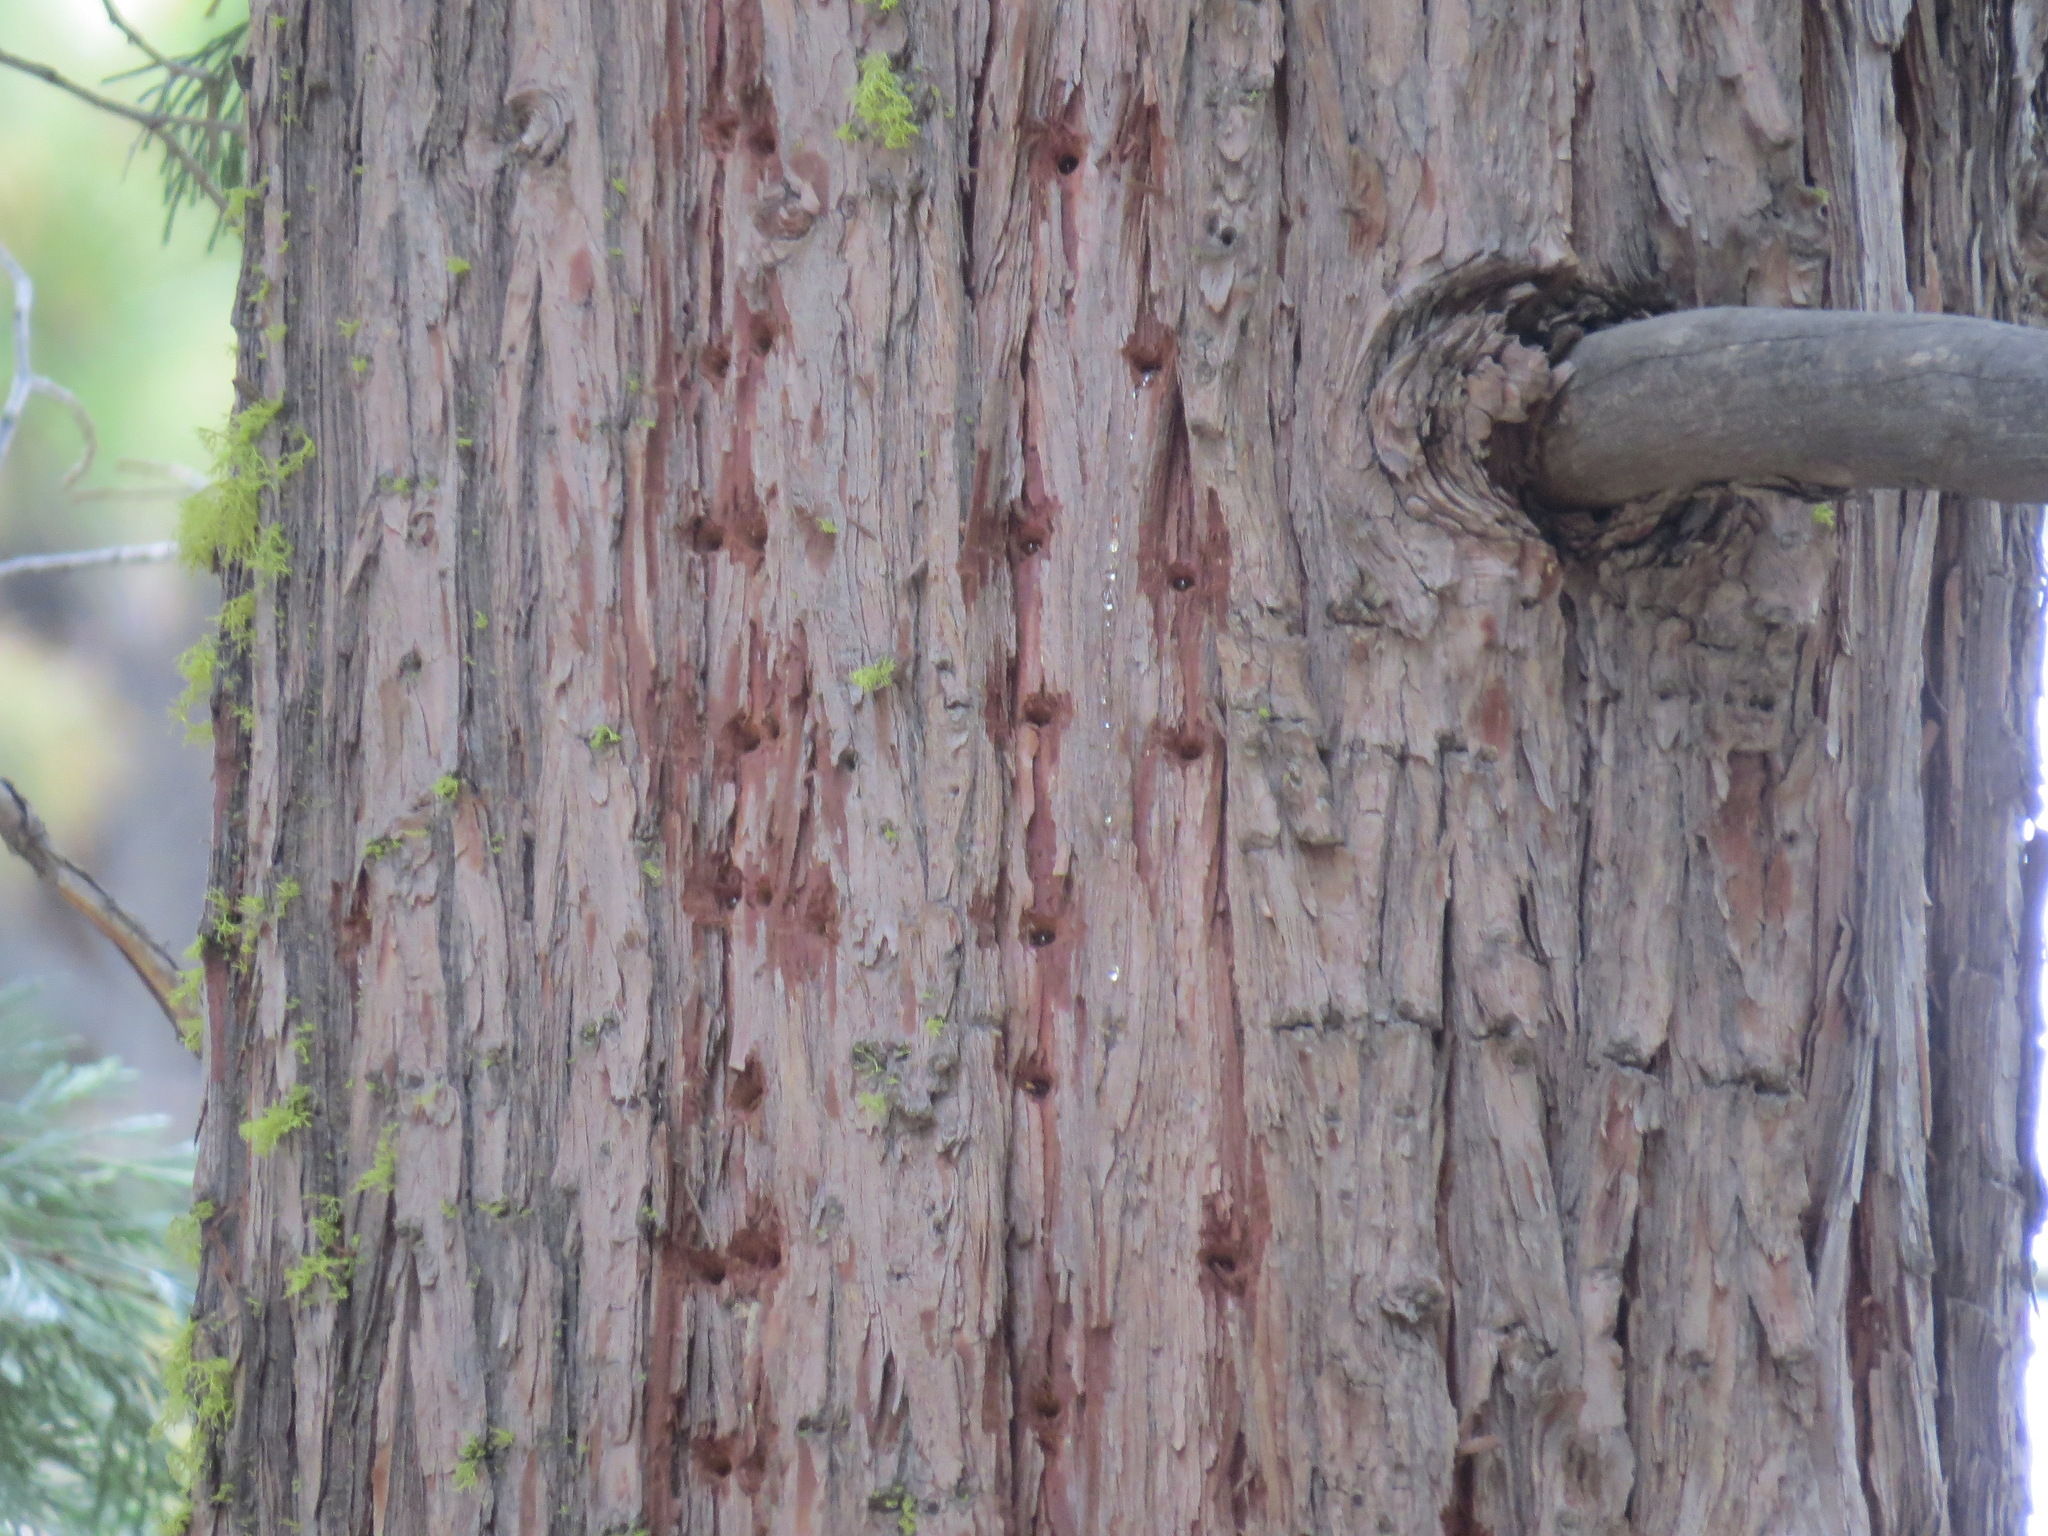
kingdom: Animalia
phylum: Chordata
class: Aves
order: Piciformes
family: Picidae
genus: Sphyrapicus
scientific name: Sphyrapicus ruber
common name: Red-breasted sapsucker
